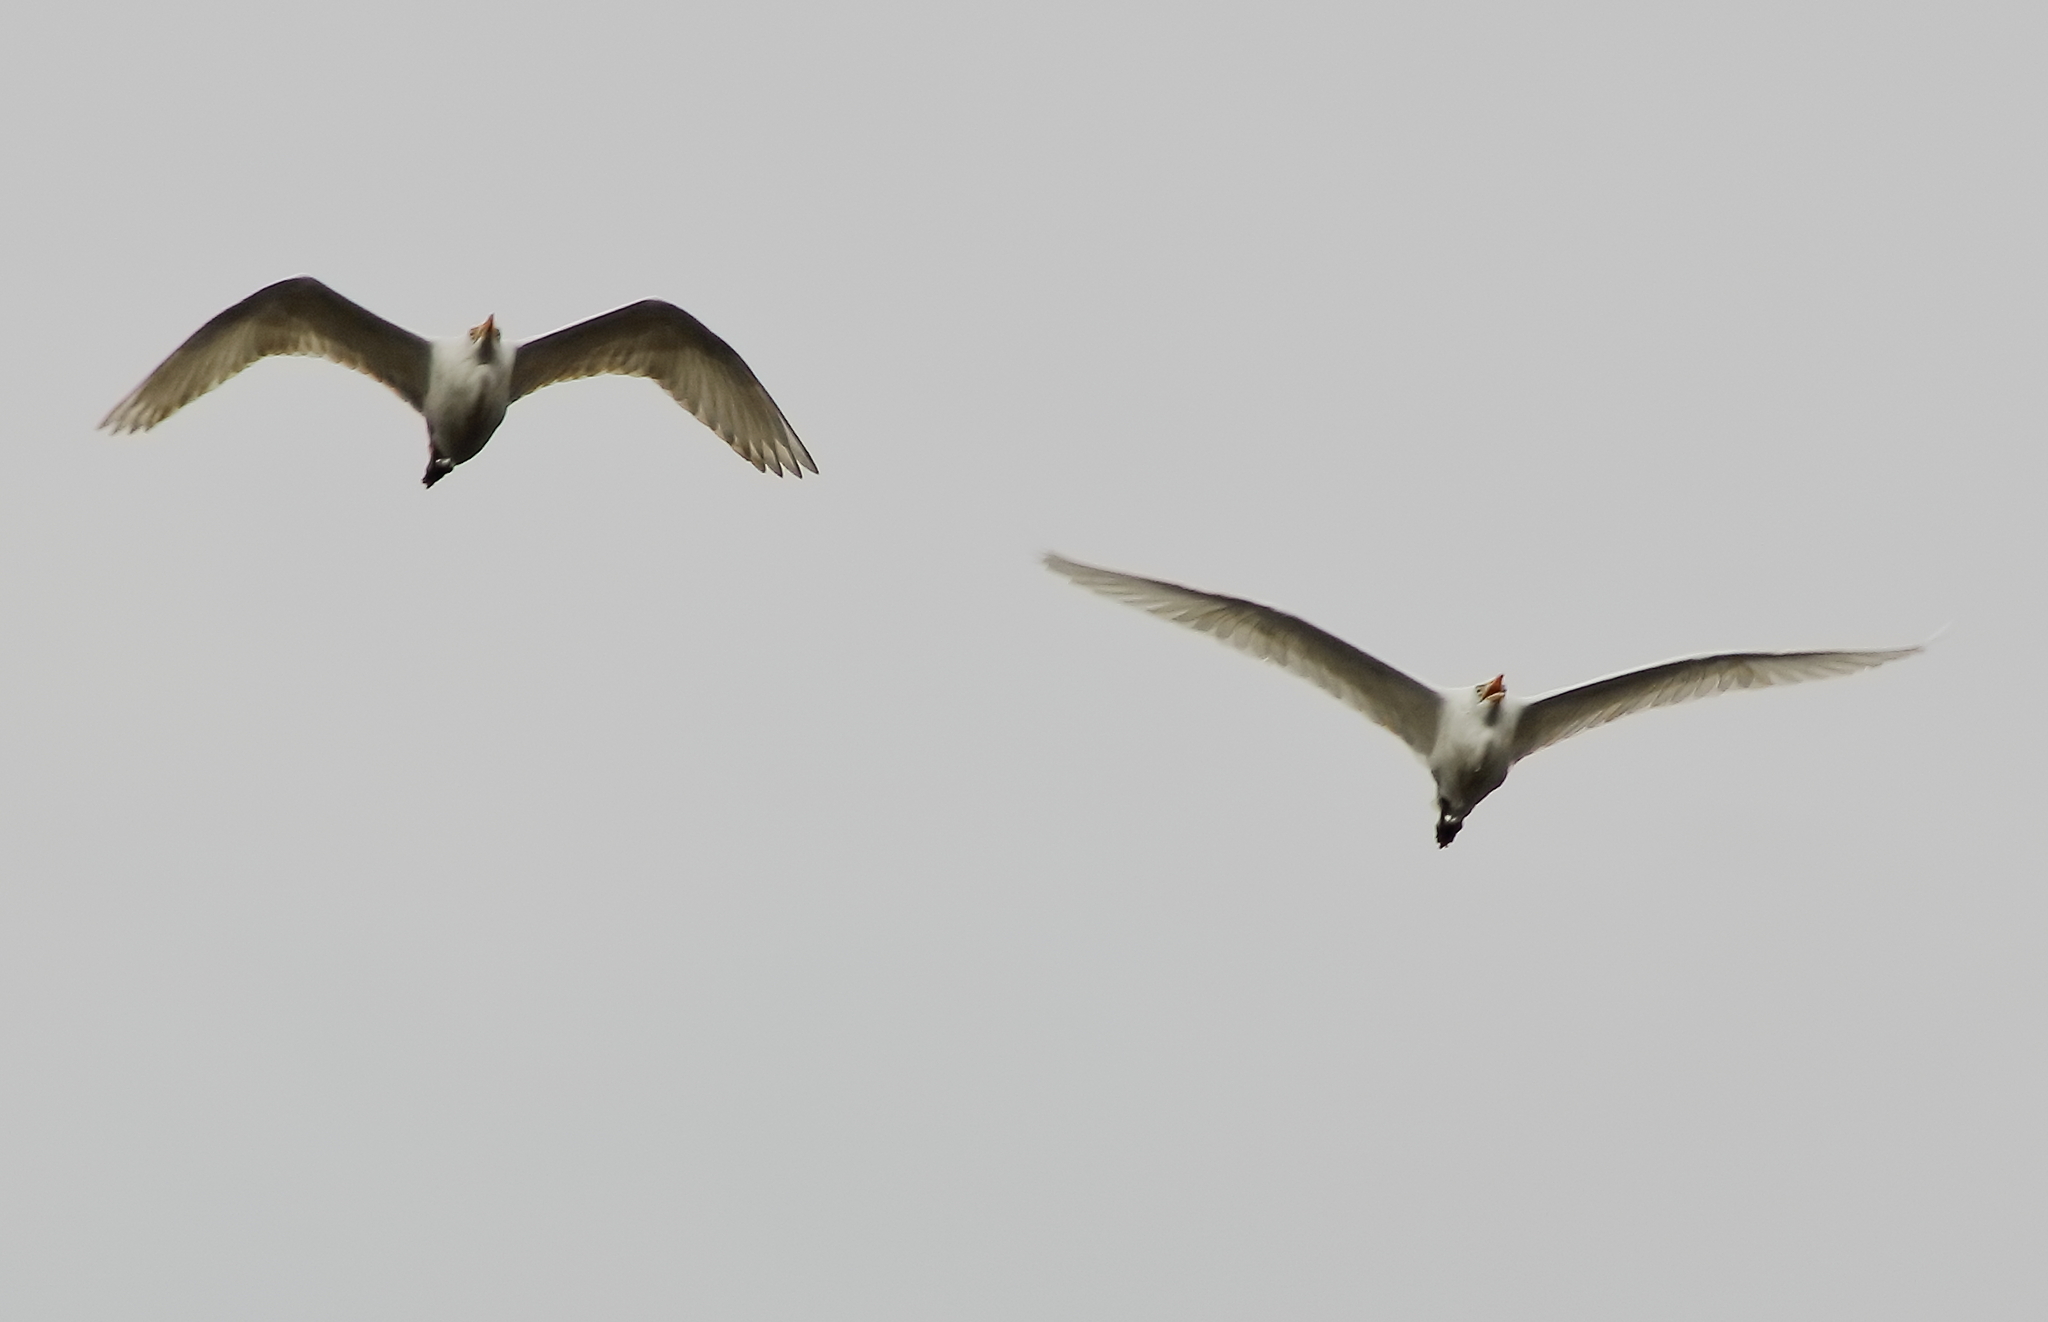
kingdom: Animalia
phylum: Chordata
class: Aves
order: Pelecaniformes
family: Ardeidae
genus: Bubulcus
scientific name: Bubulcus ibis
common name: Cattle egret
